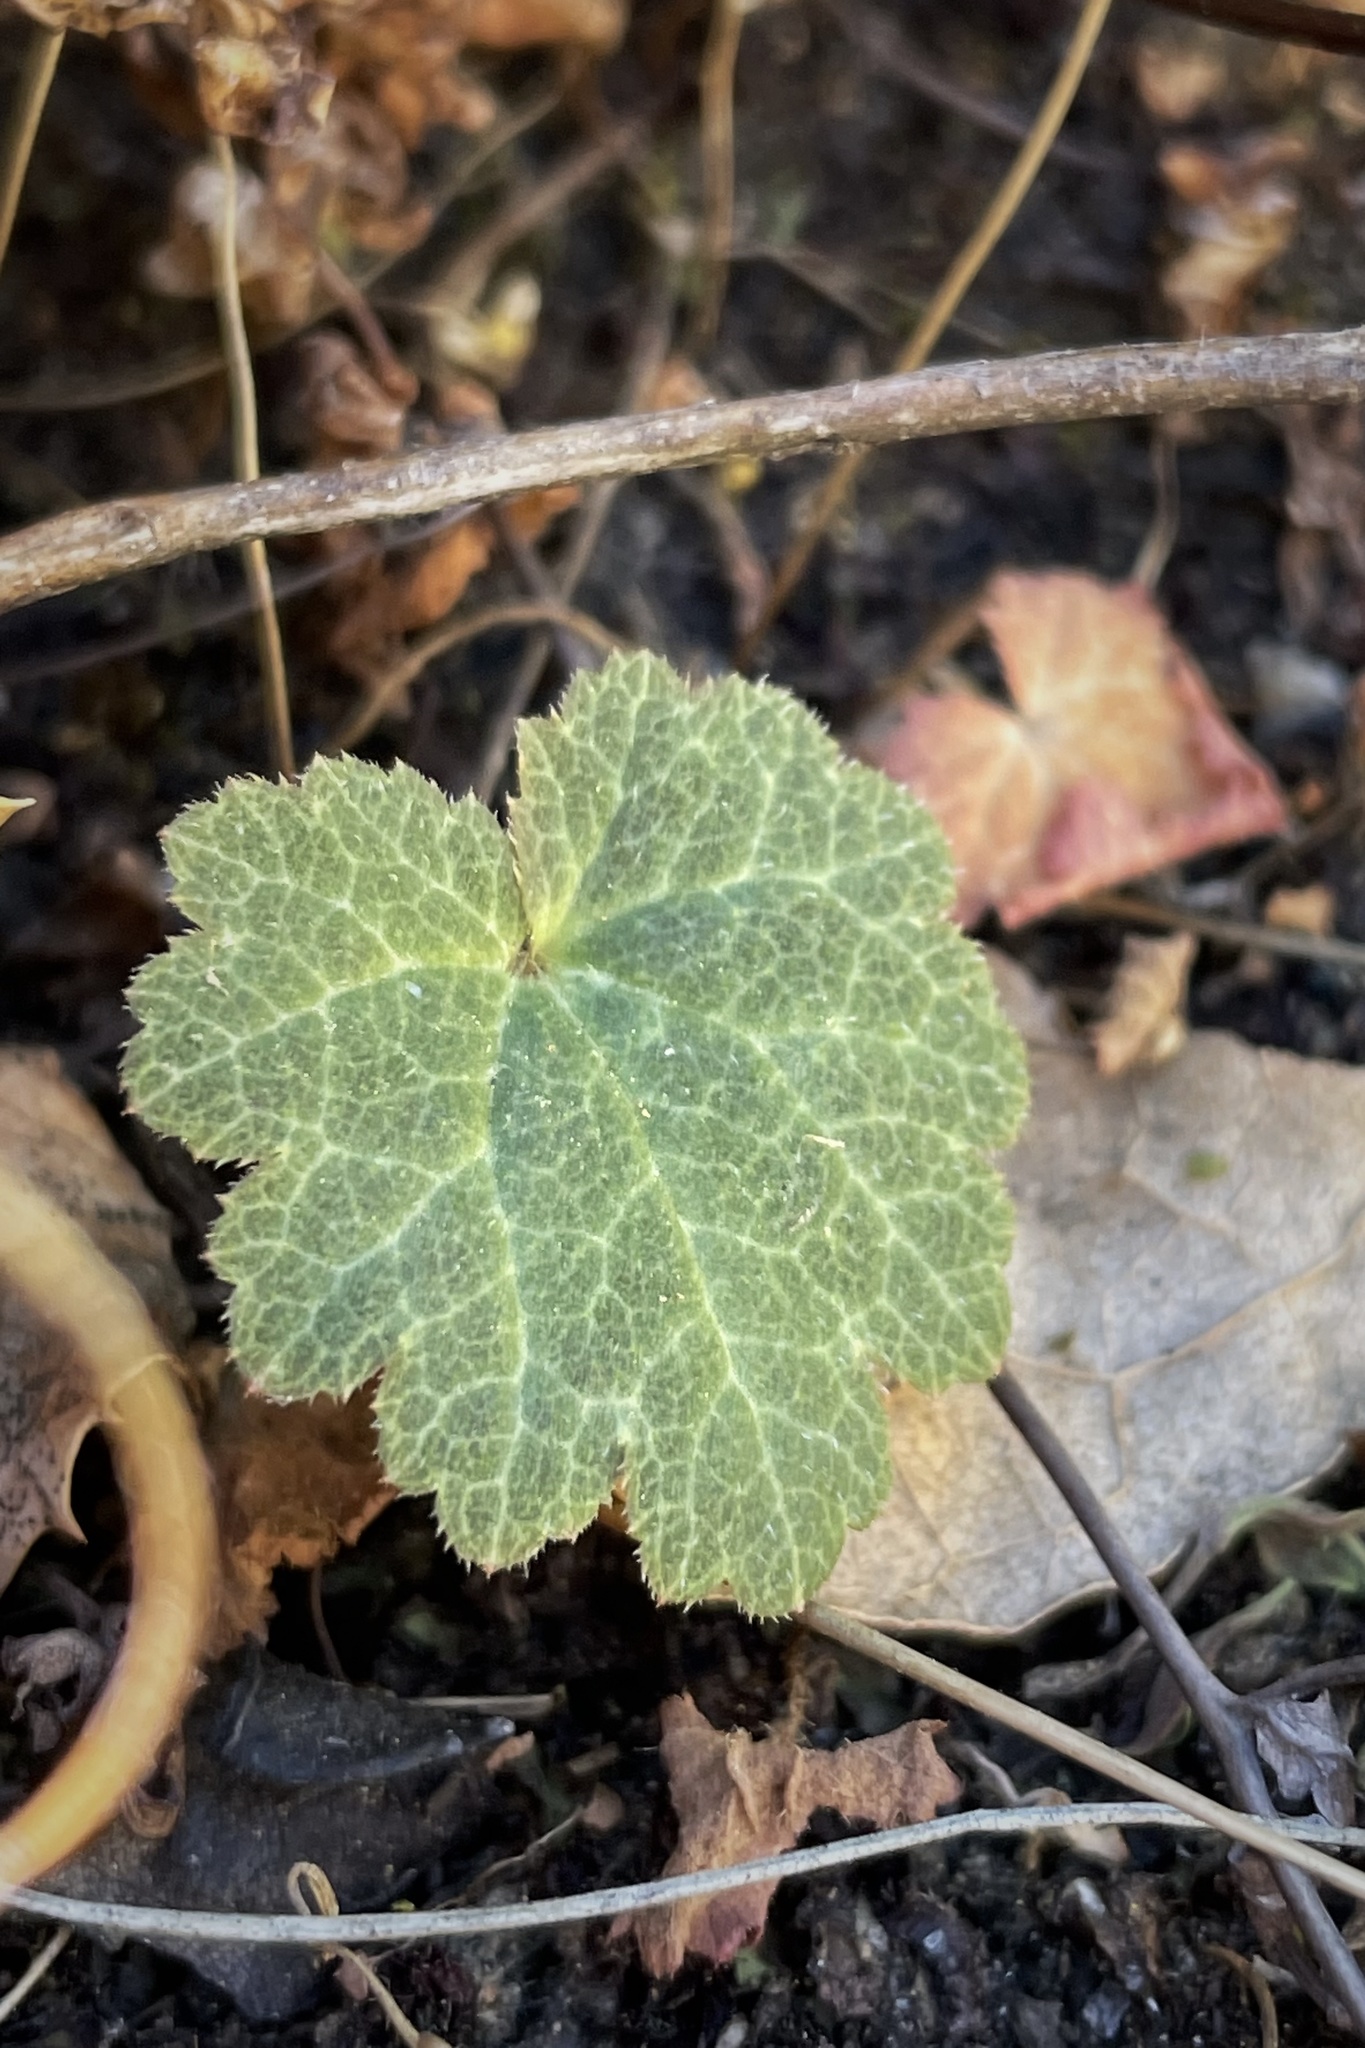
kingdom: Plantae
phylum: Tracheophyta
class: Magnoliopsida
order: Saxifragales
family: Saxifragaceae
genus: Jepsonia
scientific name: Jepsonia parryi
